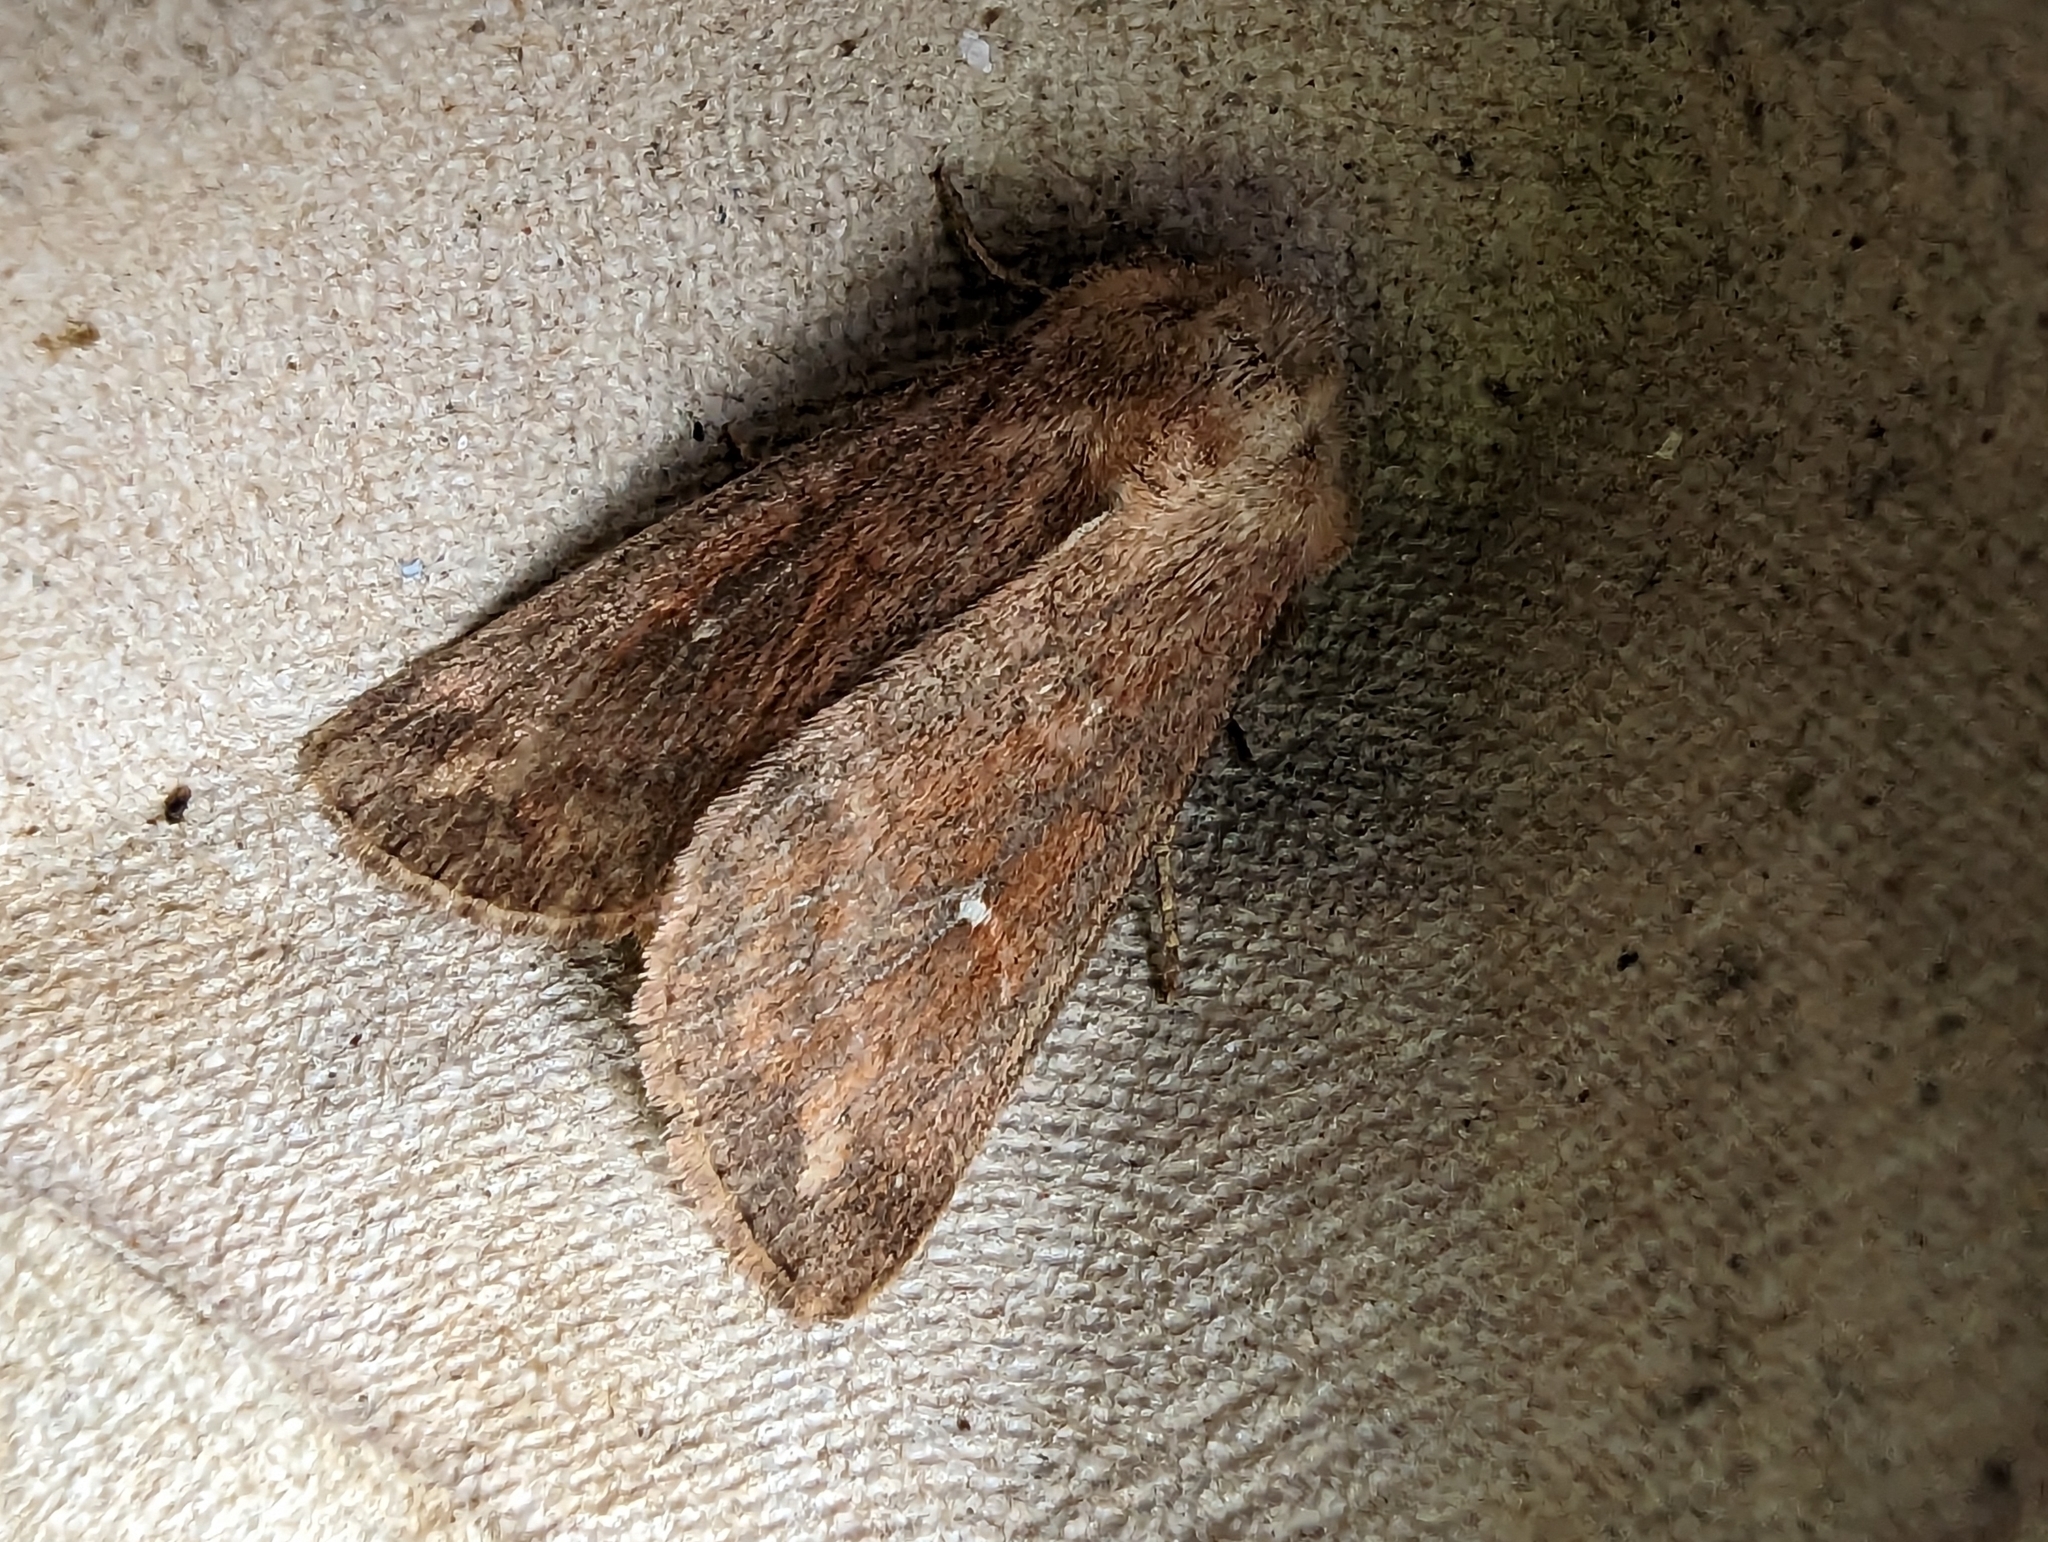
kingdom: Animalia
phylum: Arthropoda
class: Insecta
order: Lepidoptera
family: Noctuidae
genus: Mythimna
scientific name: Mythimna albipuncta
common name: White-point
